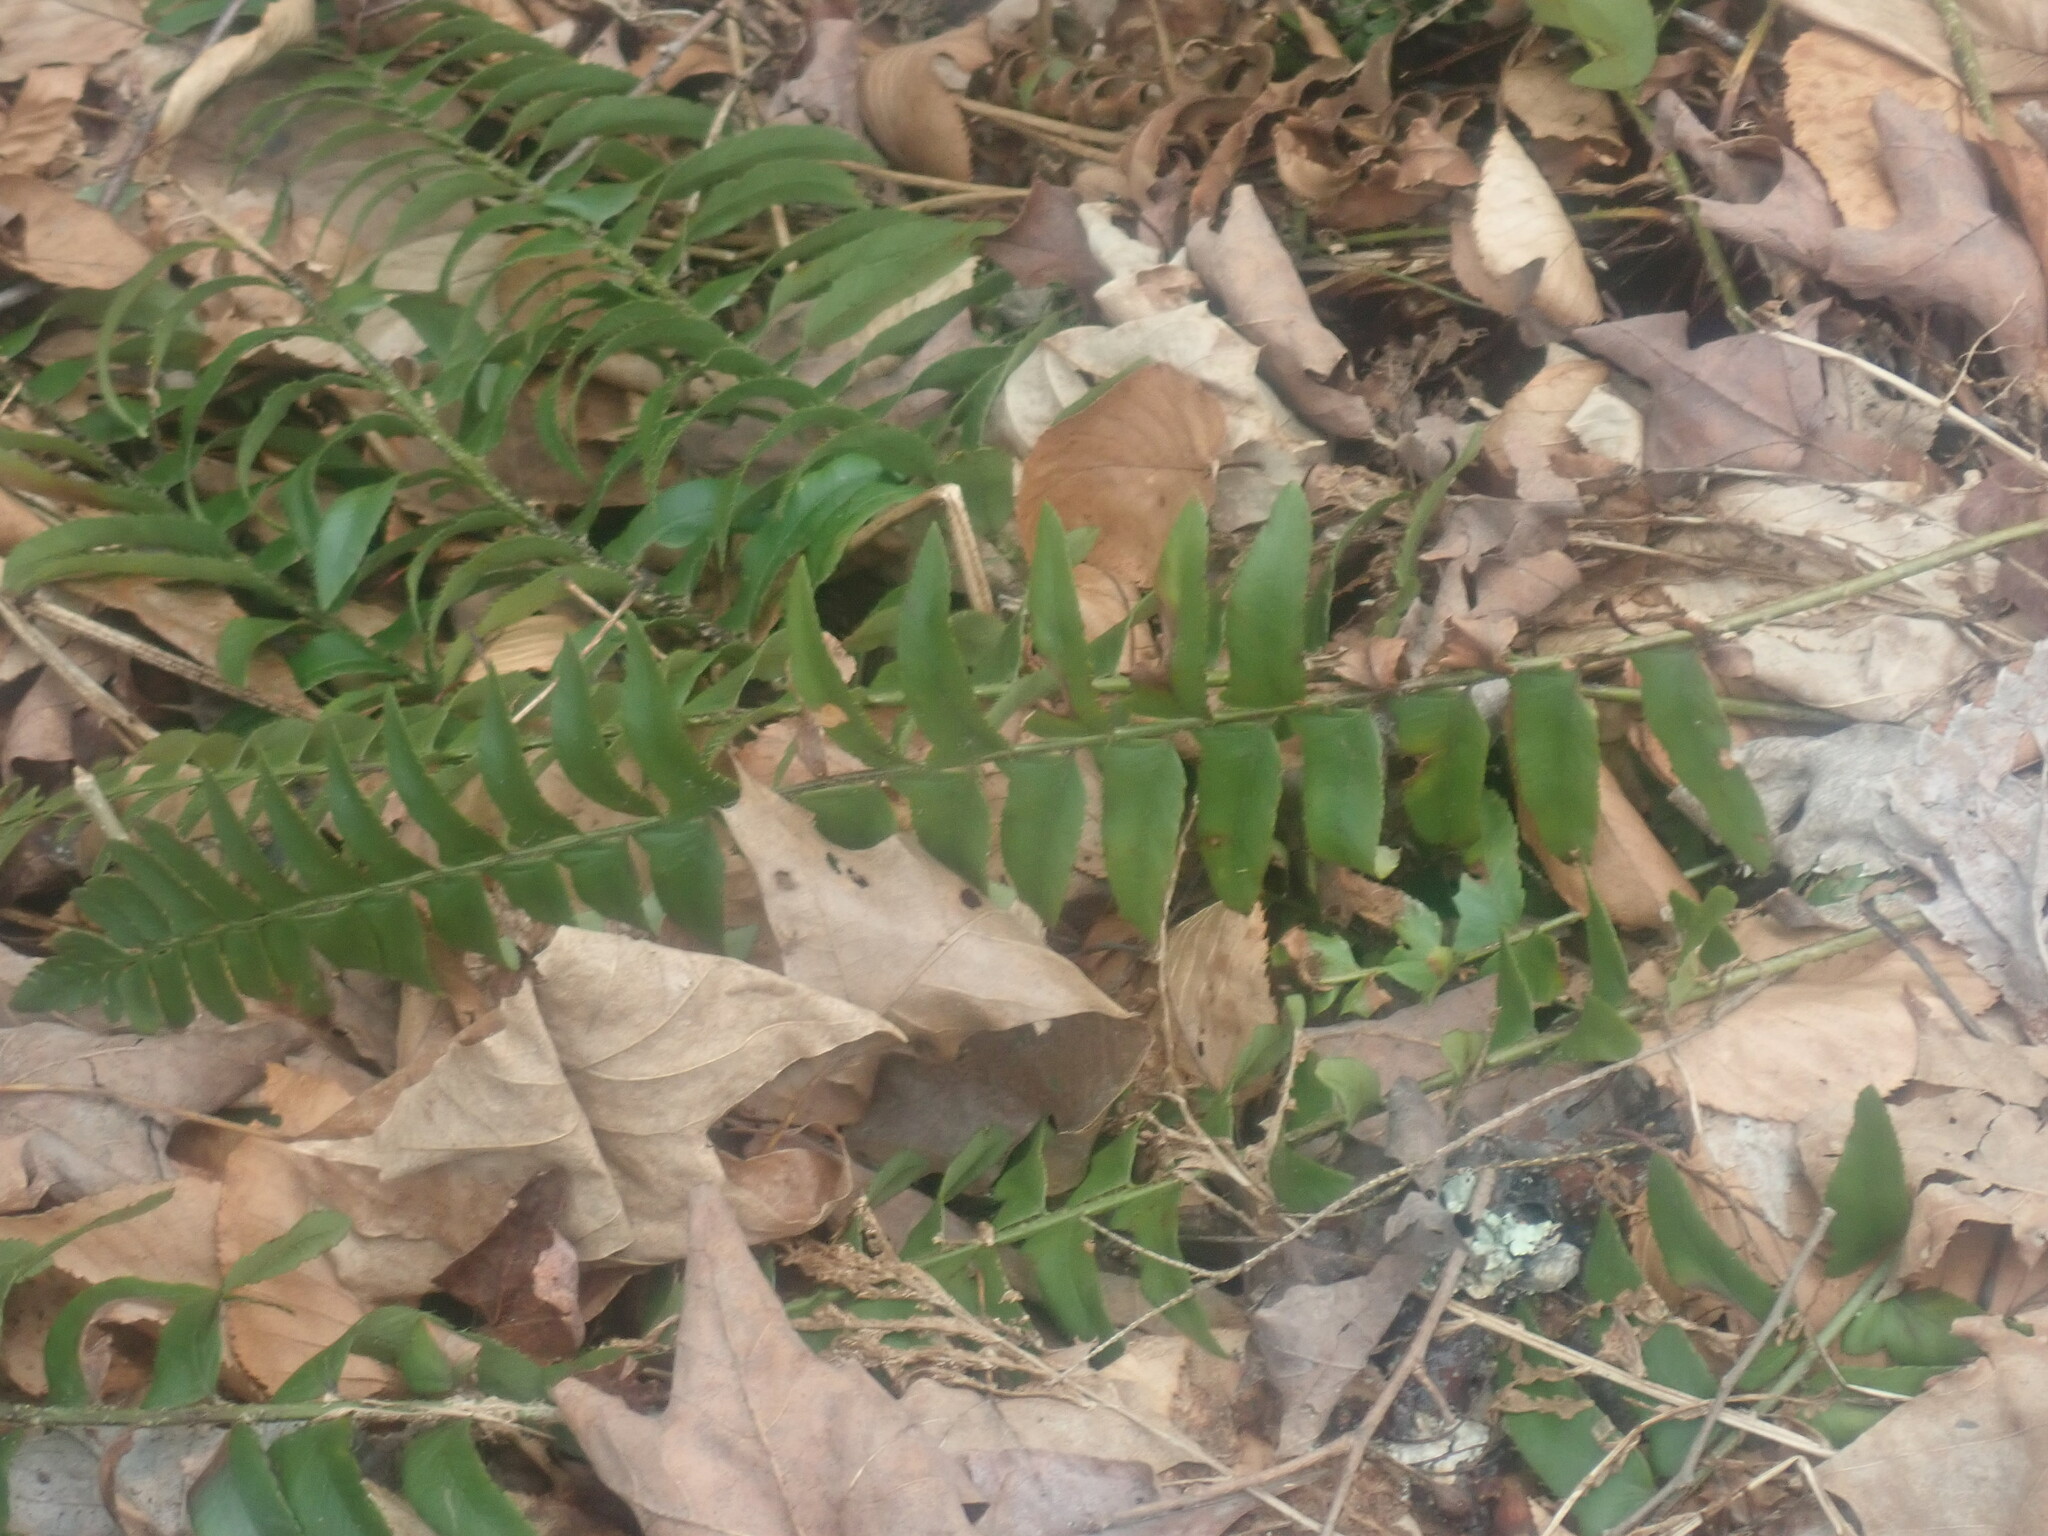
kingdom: Plantae
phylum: Tracheophyta
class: Polypodiopsida
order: Polypodiales
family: Dryopteridaceae
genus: Polystichum
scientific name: Polystichum acrostichoides
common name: Christmas fern
